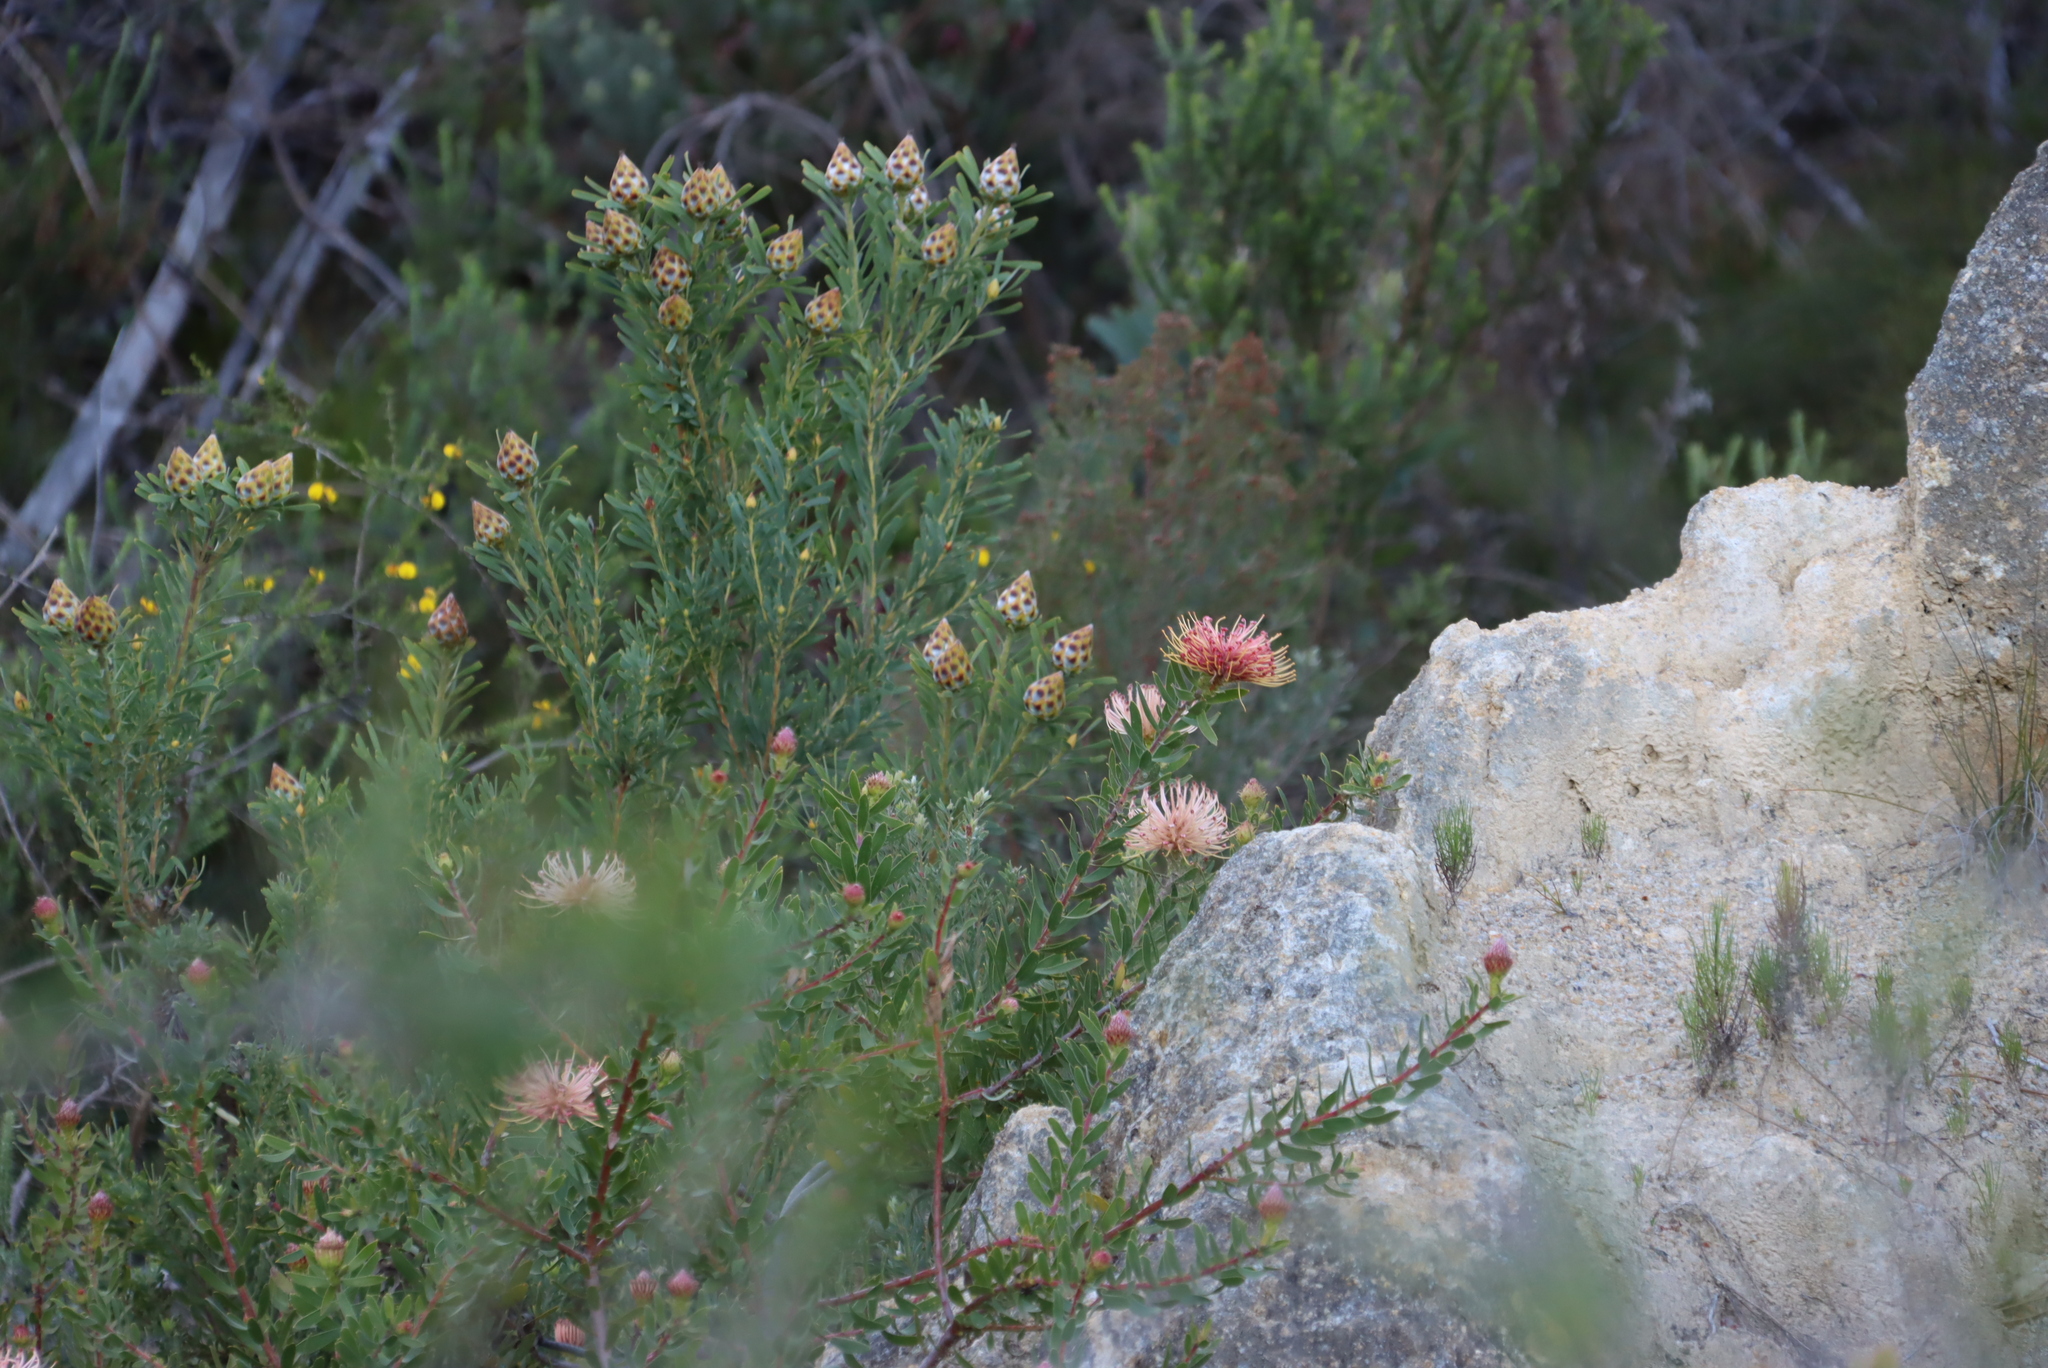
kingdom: Plantae
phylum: Tracheophyta
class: Magnoliopsida
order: Proteales
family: Proteaceae
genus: Leucadendron
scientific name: Leucadendron rubrum
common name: Spinning top
